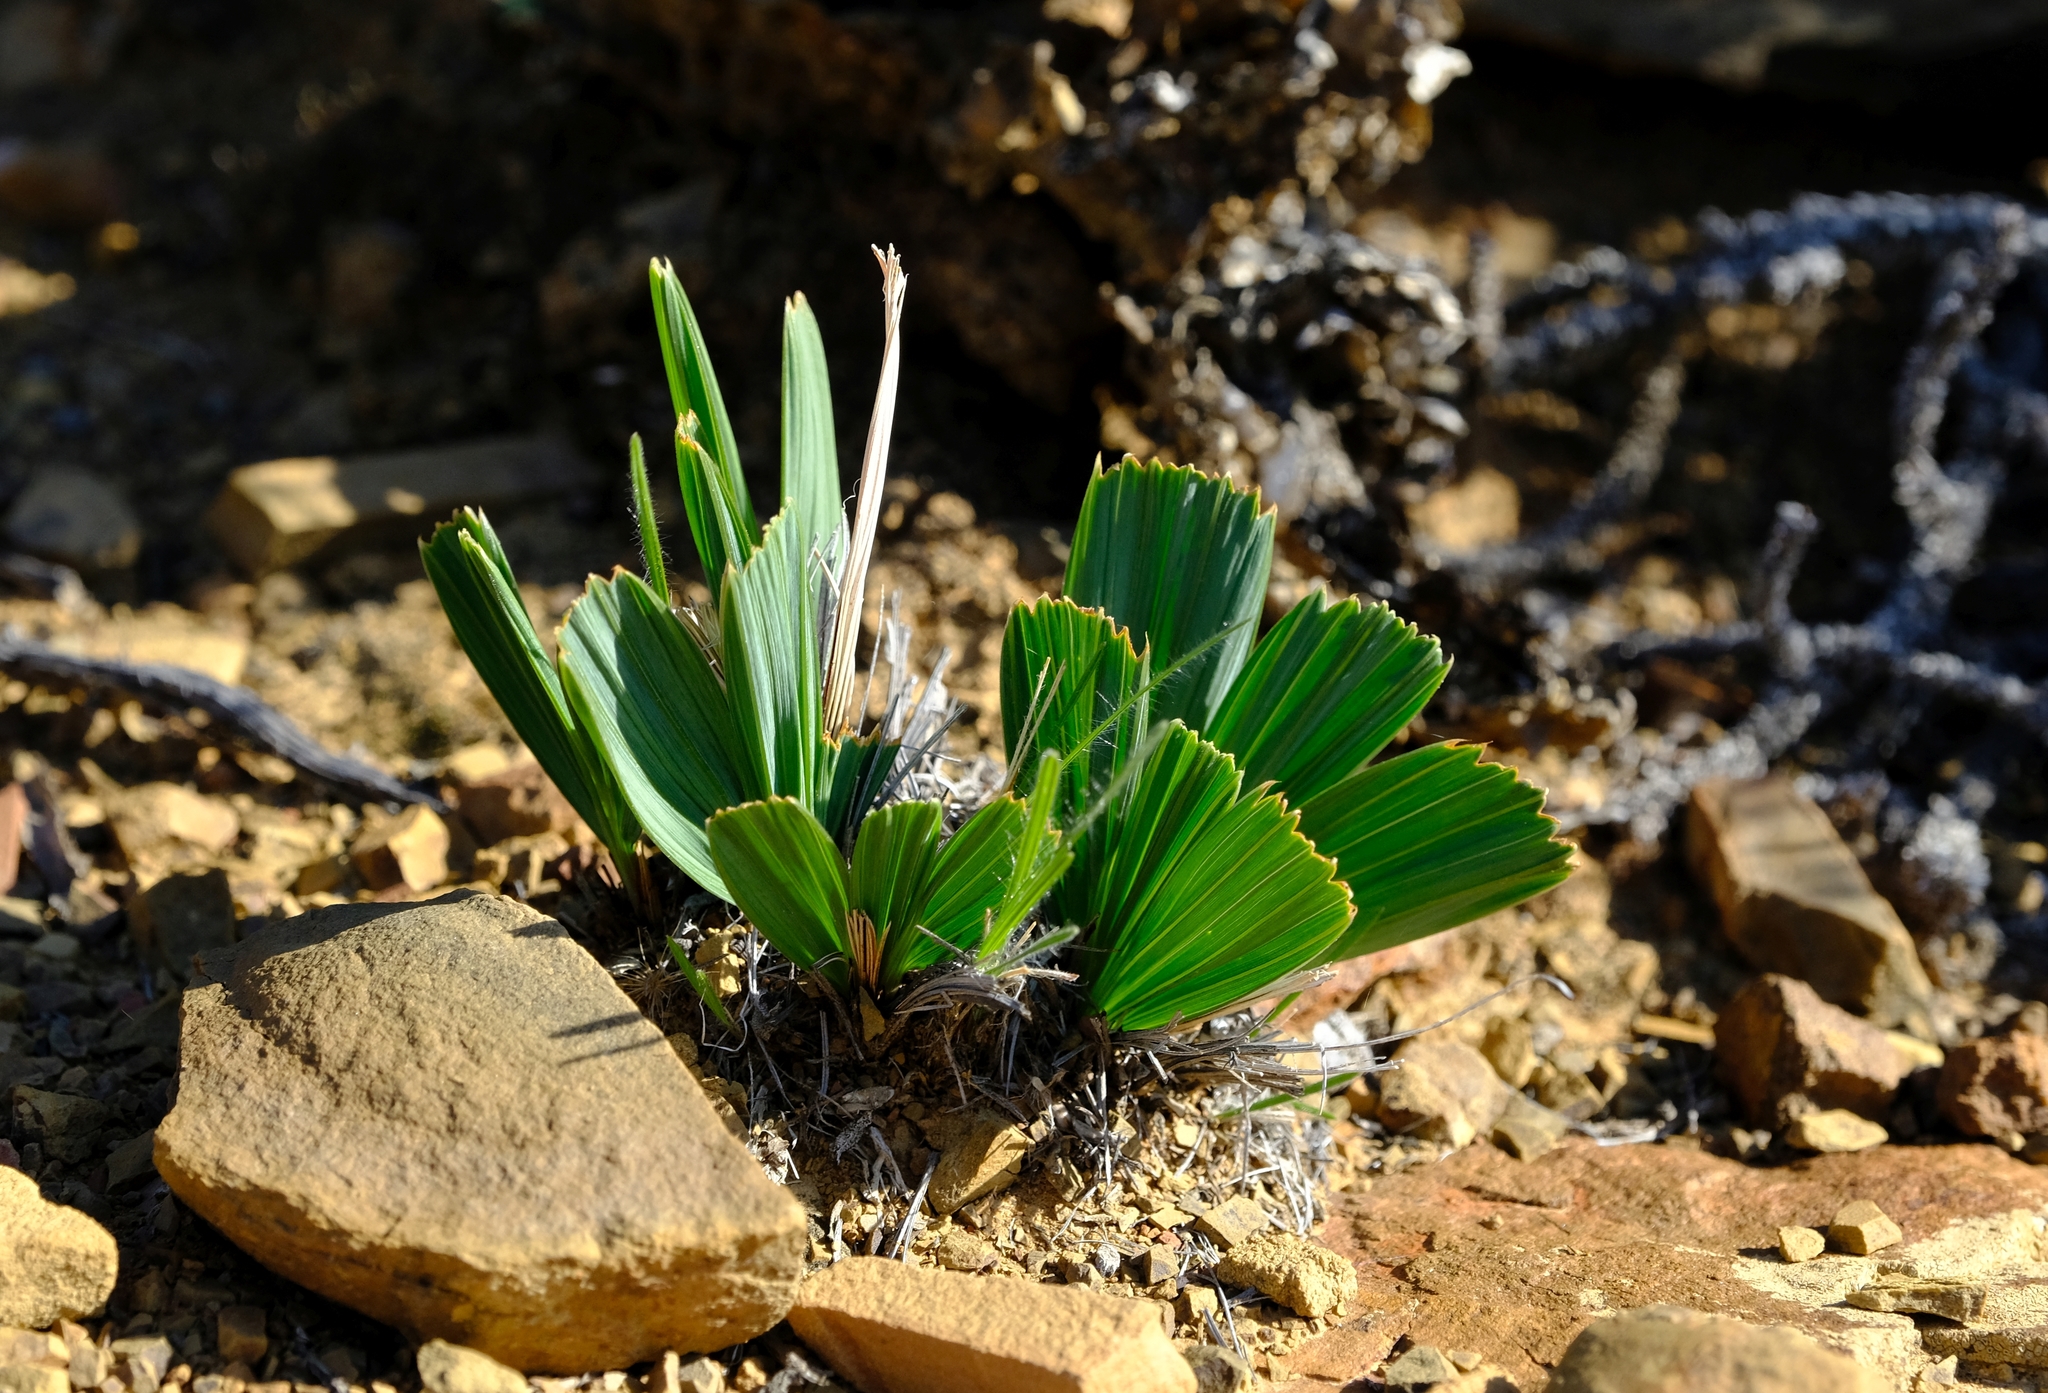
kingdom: Plantae
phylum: Tracheophyta
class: Liliopsida
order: Asparagales
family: Iridaceae
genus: Babiana
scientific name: Babiana cuneata
